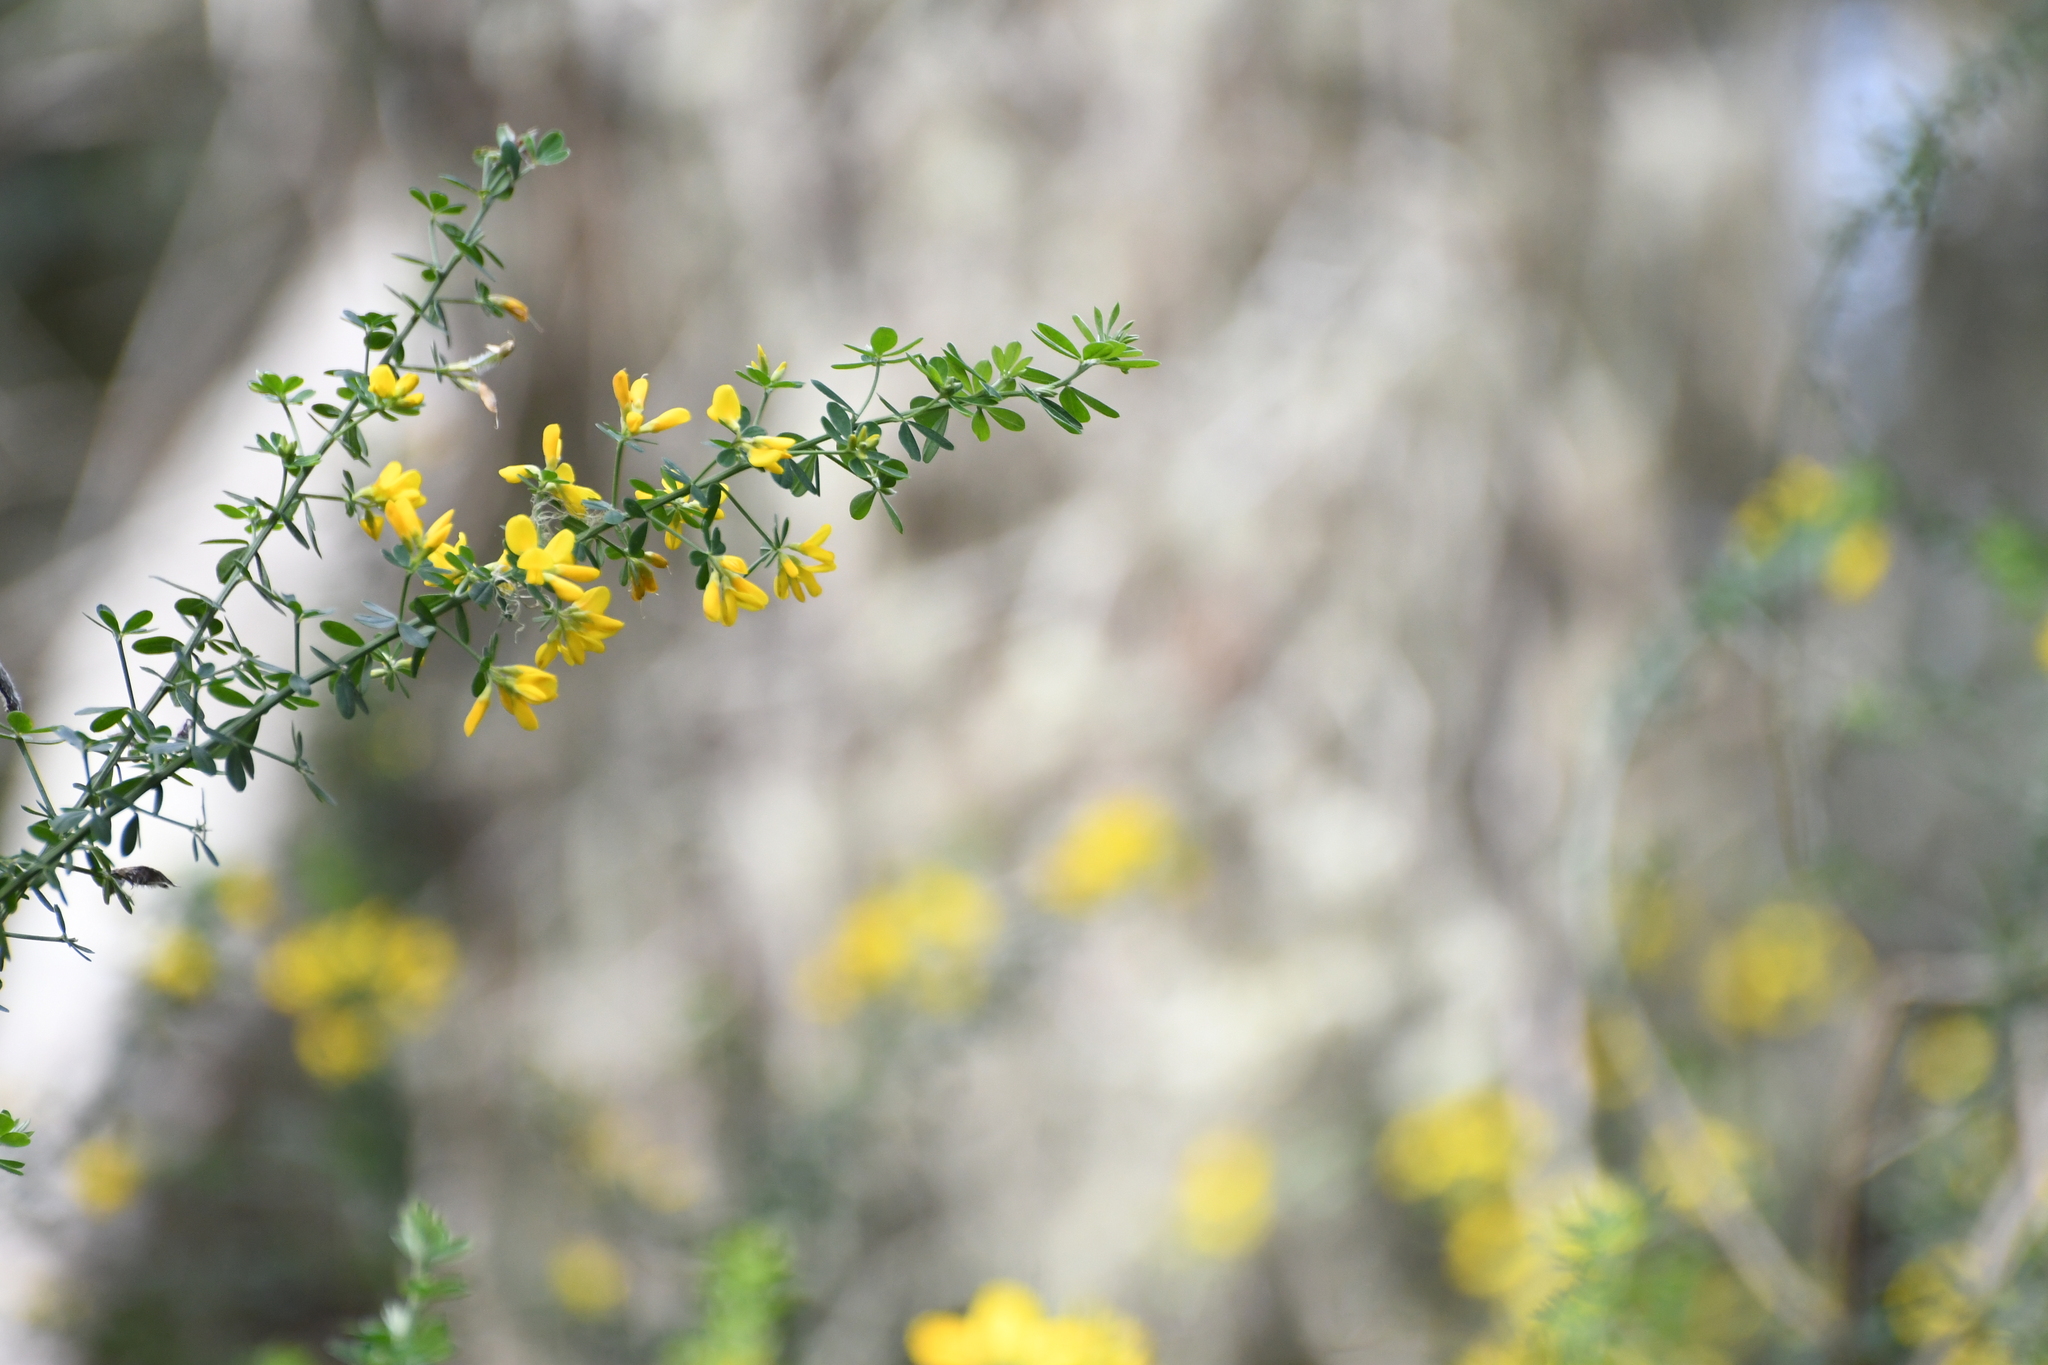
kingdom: Plantae
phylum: Tracheophyta
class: Magnoliopsida
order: Fabales
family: Fabaceae
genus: Genista
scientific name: Genista monspessulana
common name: Montpellier broom
